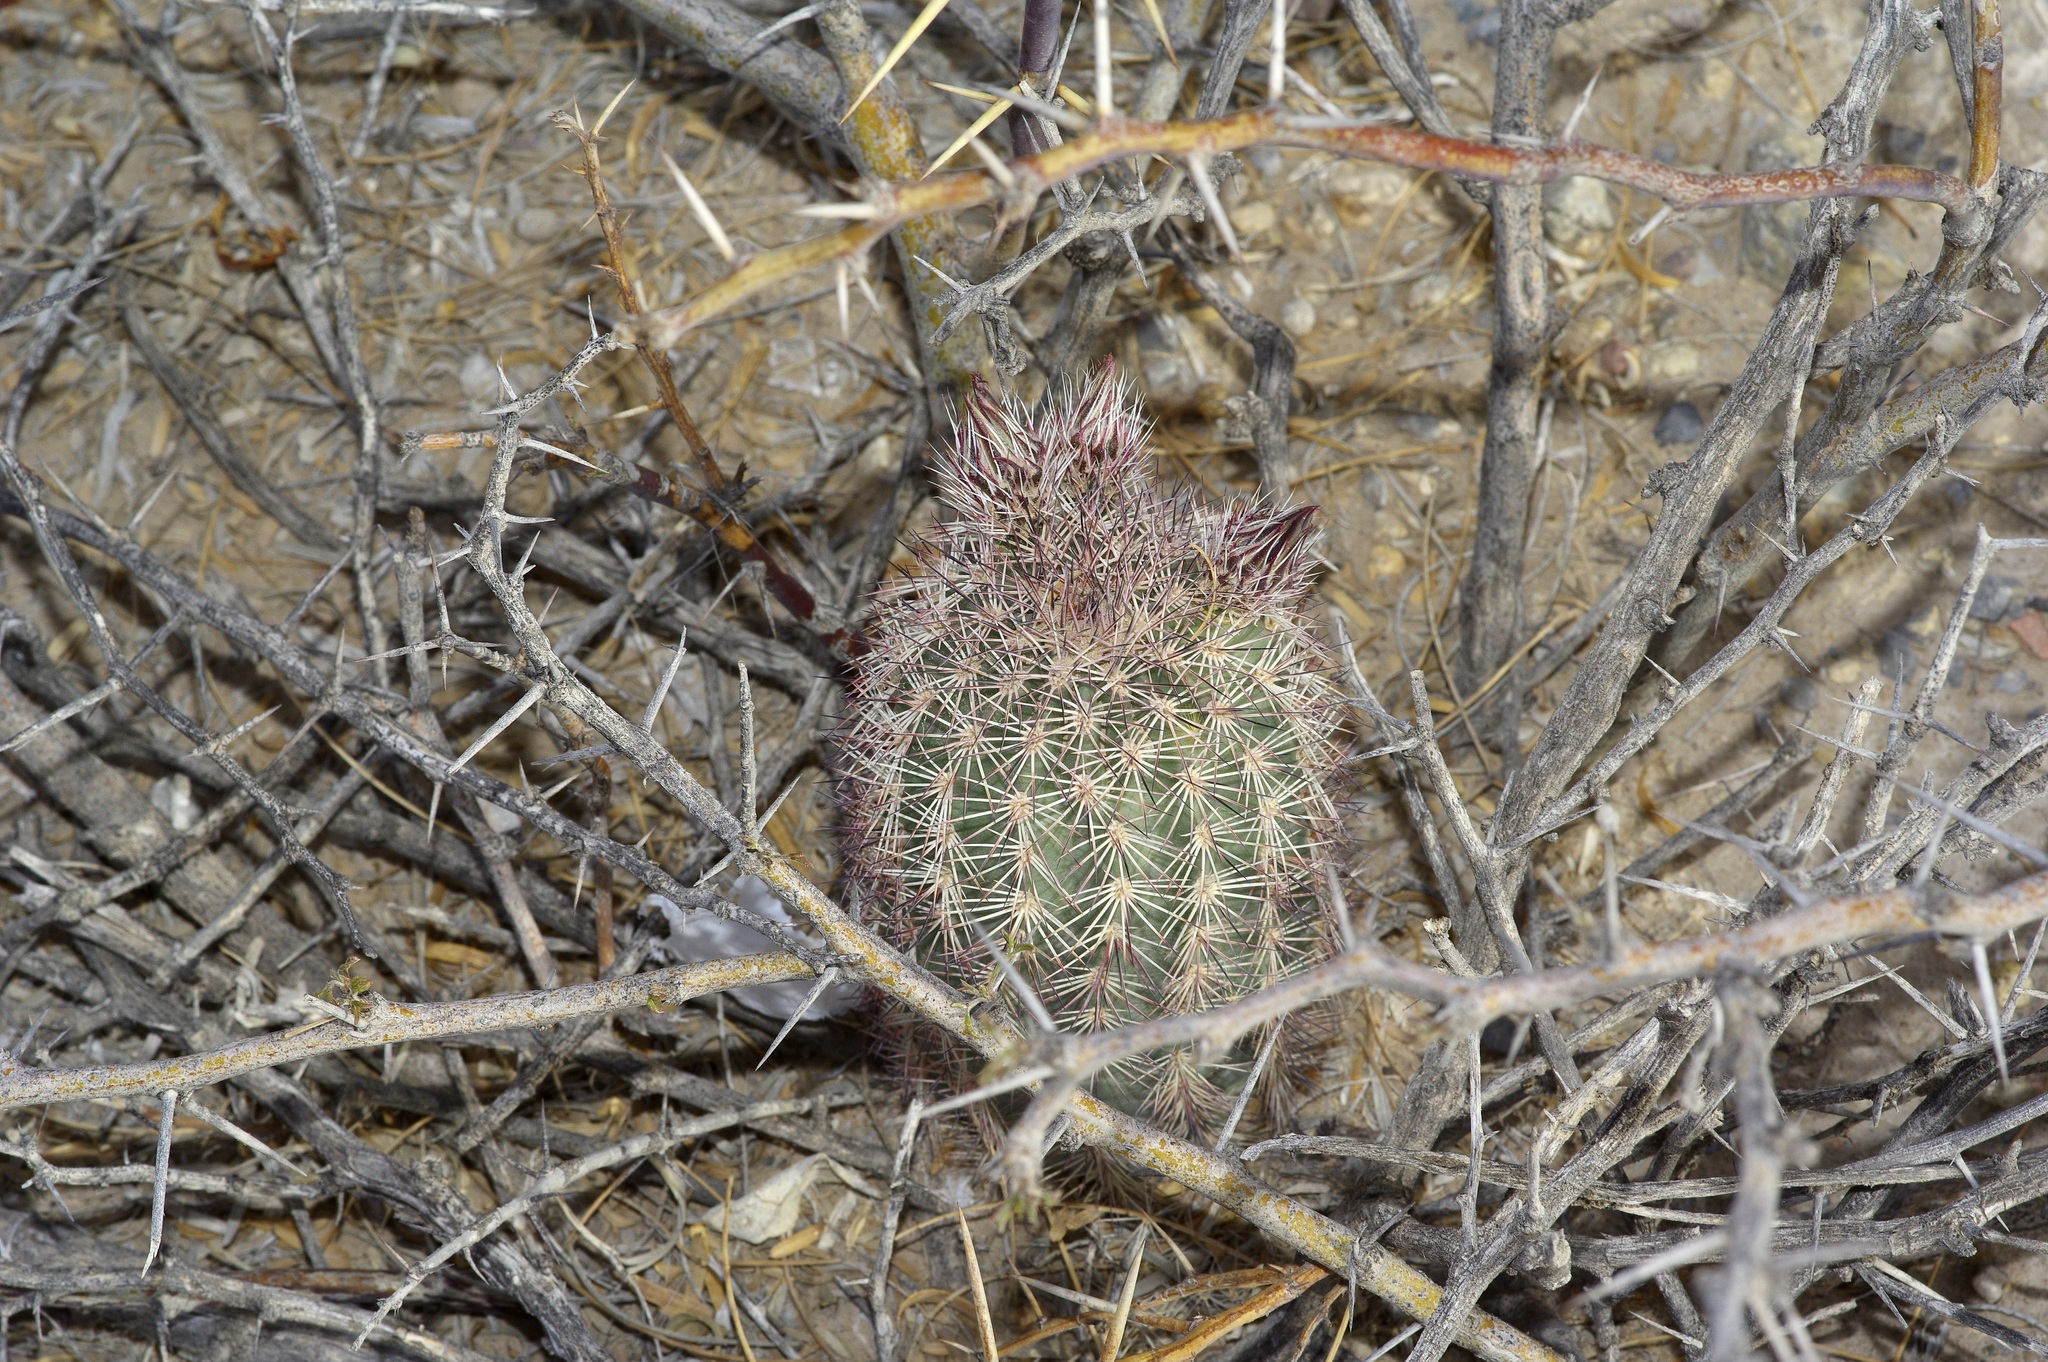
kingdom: Plantae
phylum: Tracheophyta
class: Magnoliopsida
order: Caryophyllales
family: Cactaceae
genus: Echinocereus
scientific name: Echinocereus dasyacanthus
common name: Spiny hedgehog cactus
